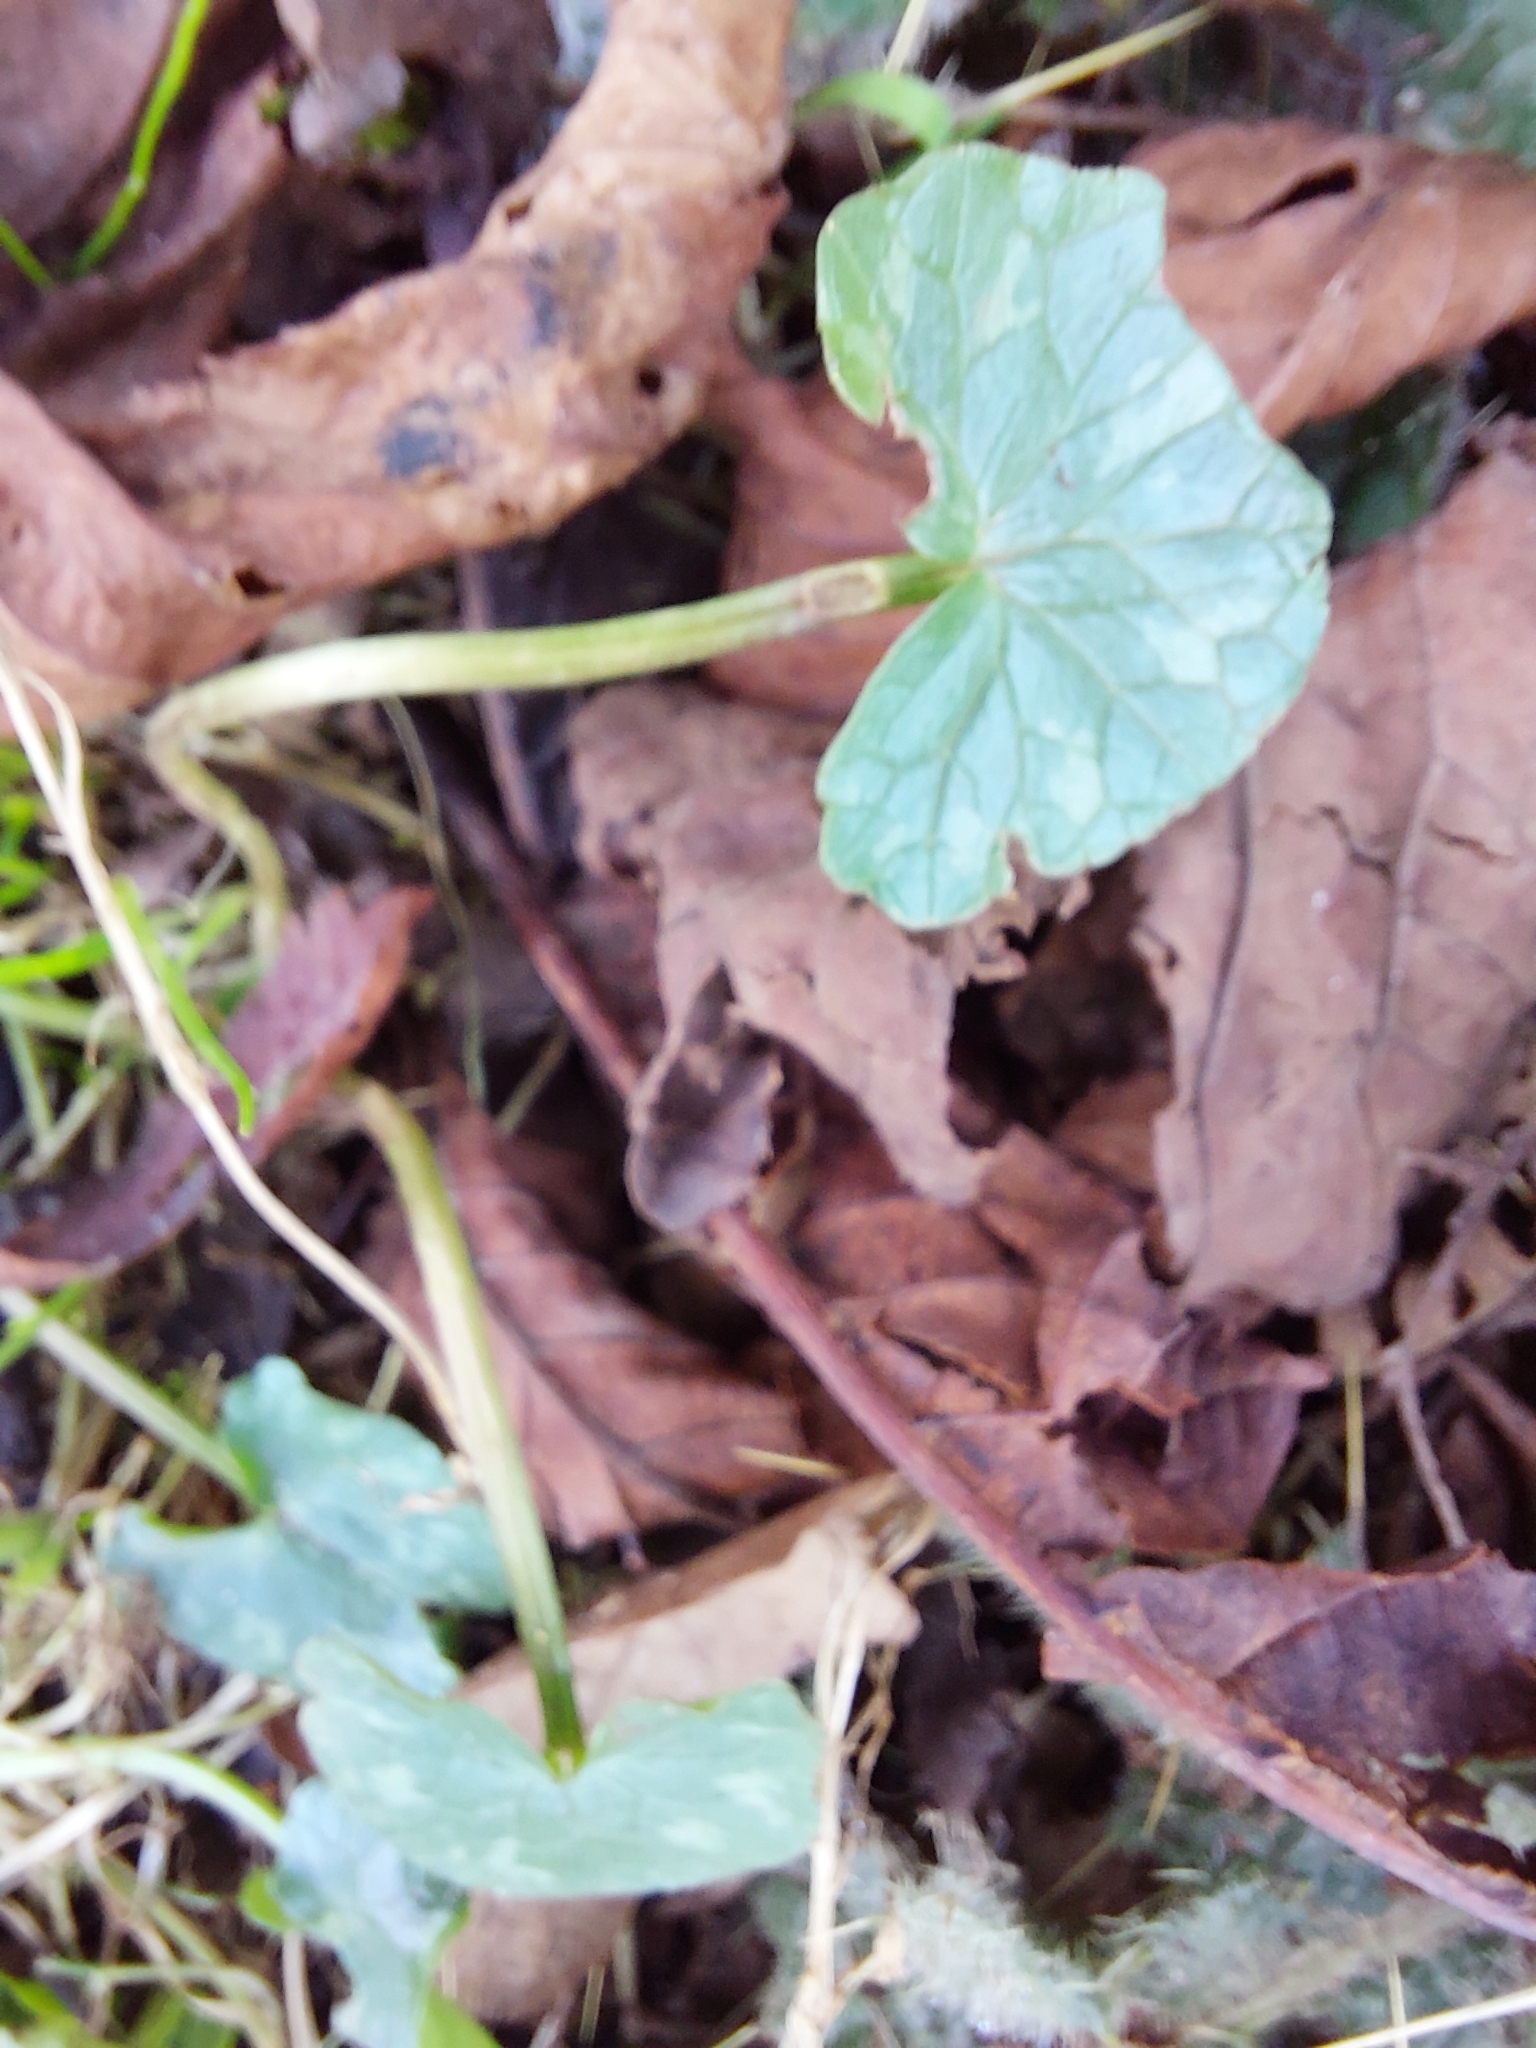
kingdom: Plantae
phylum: Tracheophyta
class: Magnoliopsida
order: Ranunculales
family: Ranunculaceae
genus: Ficaria
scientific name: Ficaria verna
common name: Lesser celandine
